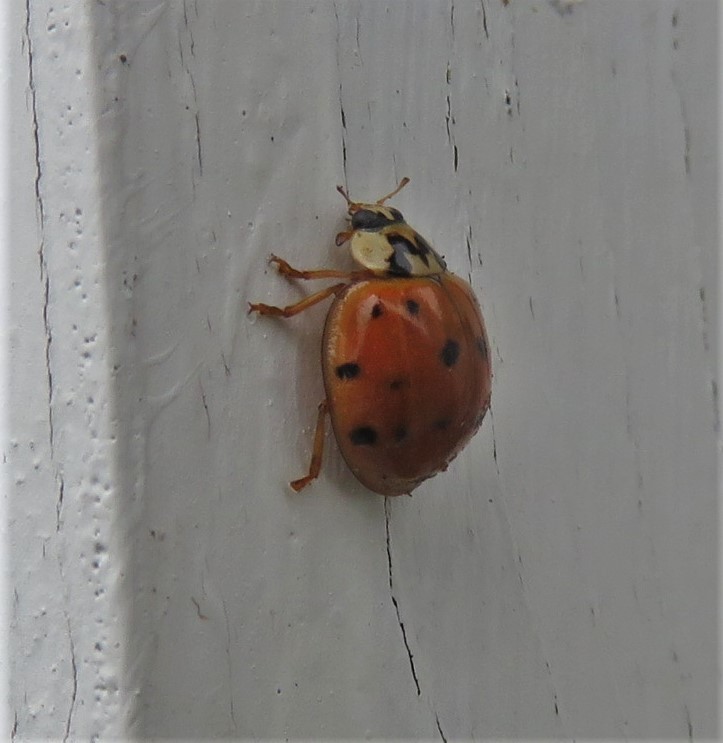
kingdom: Animalia
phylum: Arthropoda
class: Insecta
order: Coleoptera
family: Coccinellidae
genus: Harmonia
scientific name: Harmonia axyridis
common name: Harlequin ladybird
